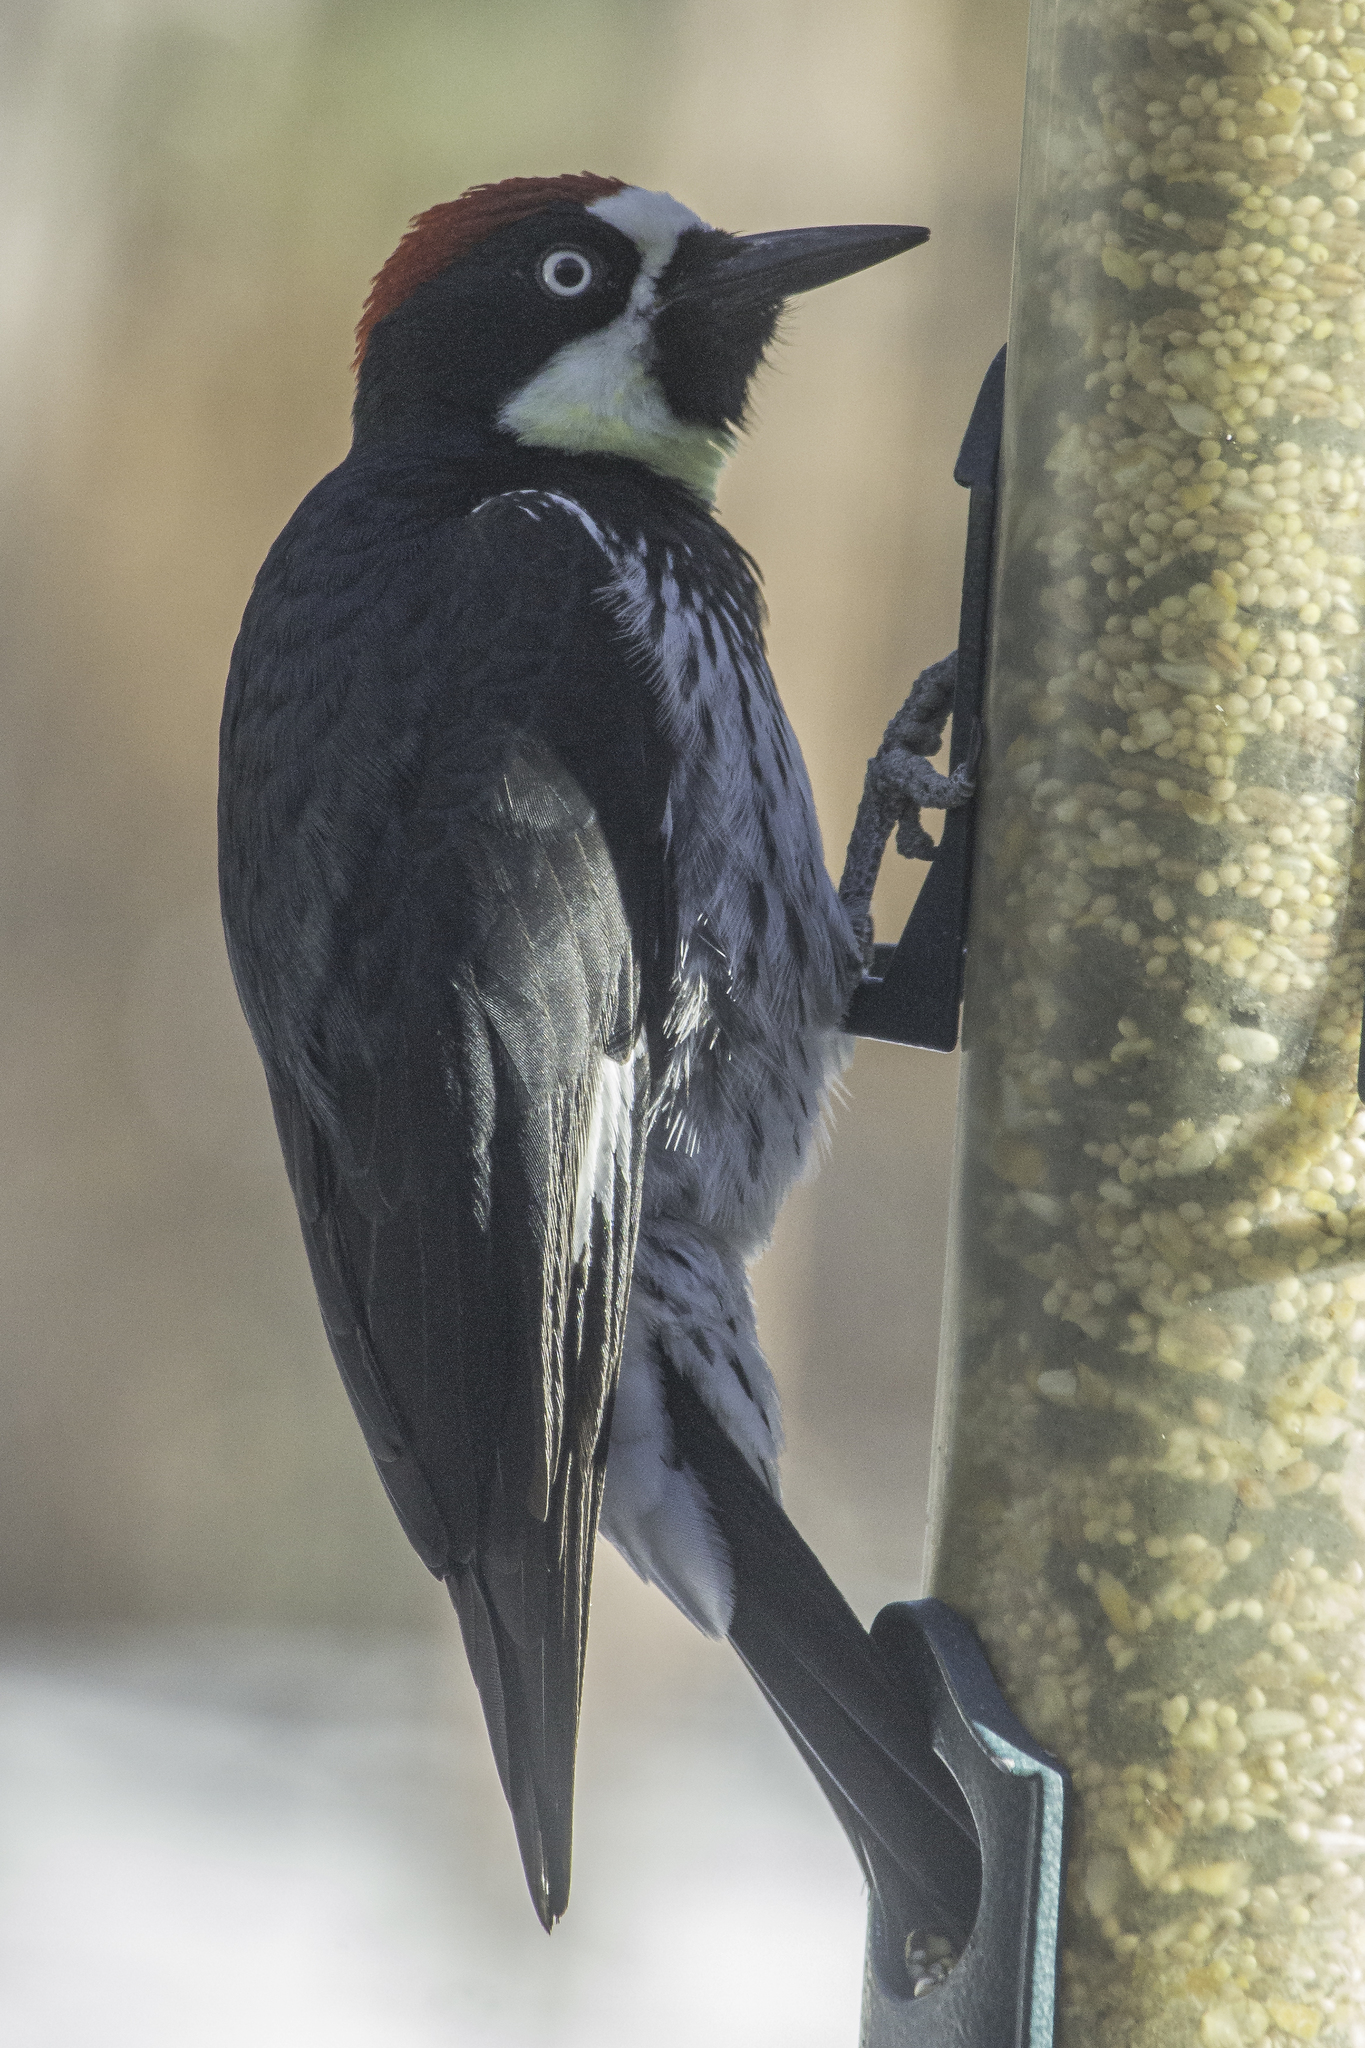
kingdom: Animalia
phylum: Chordata
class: Aves
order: Piciformes
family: Picidae
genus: Melanerpes
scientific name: Melanerpes formicivorus
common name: Acorn woodpecker
